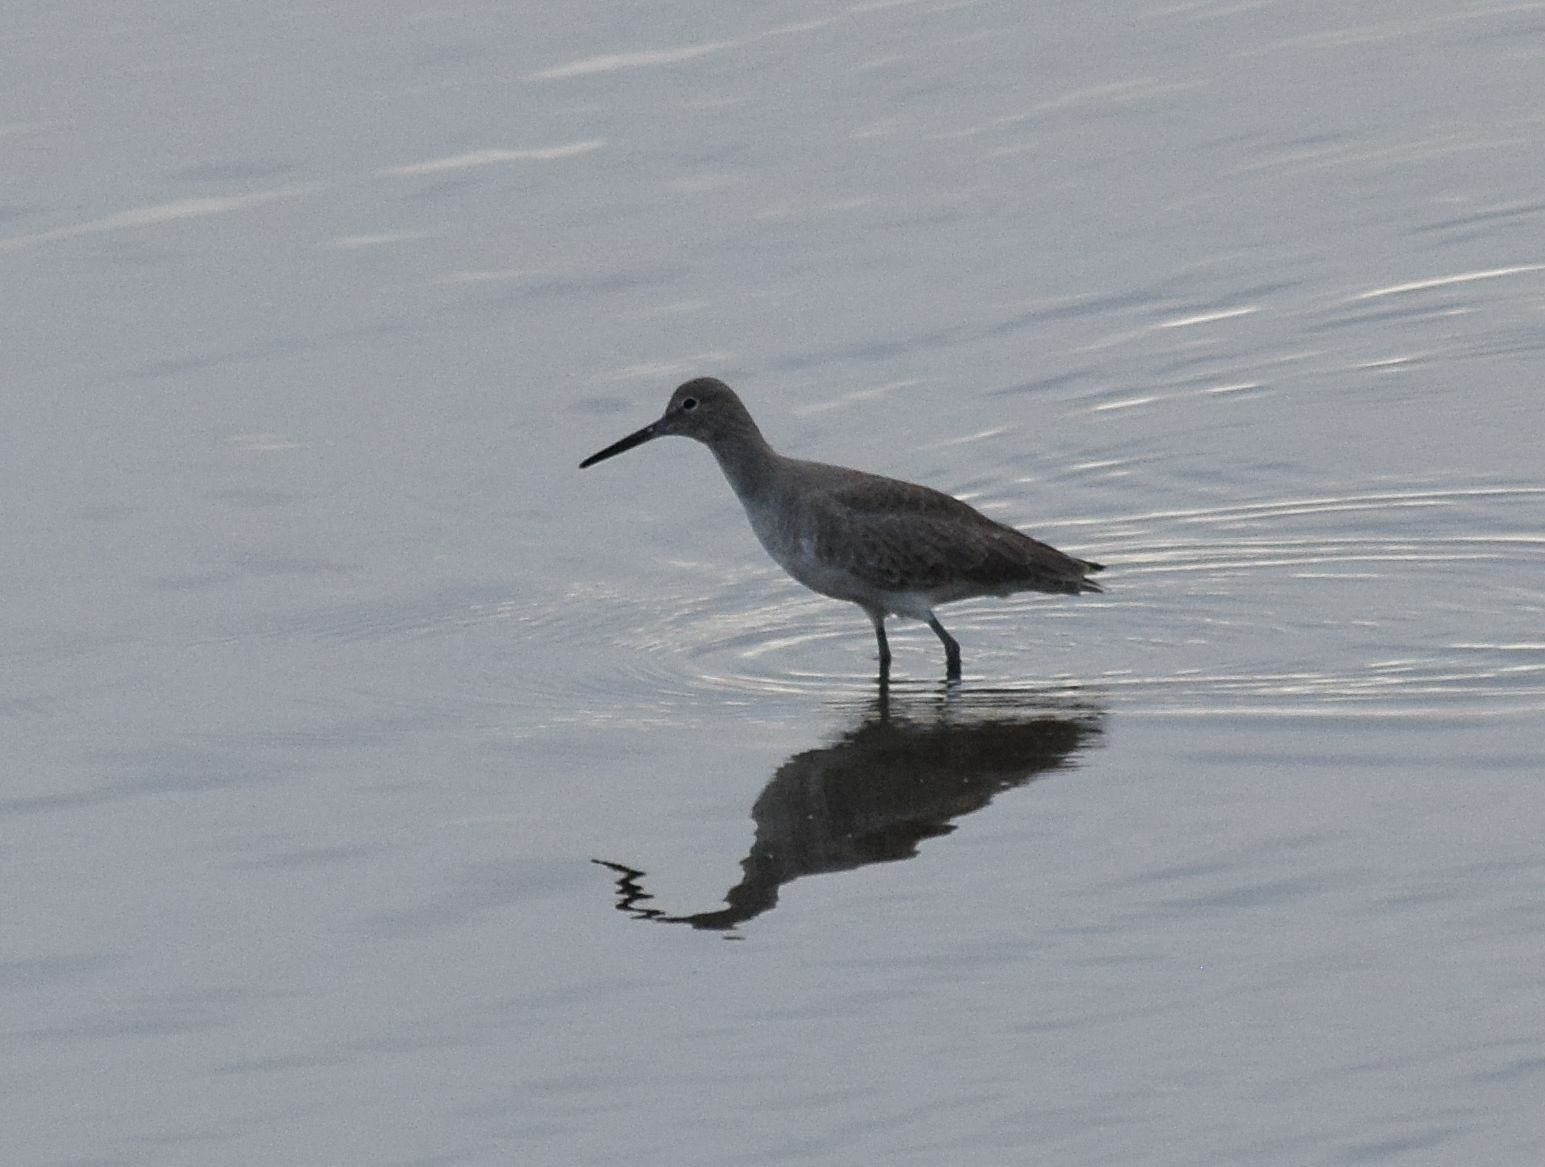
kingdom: Animalia
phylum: Chordata
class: Aves
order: Charadriiformes
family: Scolopacidae
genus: Tringa
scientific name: Tringa semipalmata
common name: Willet
